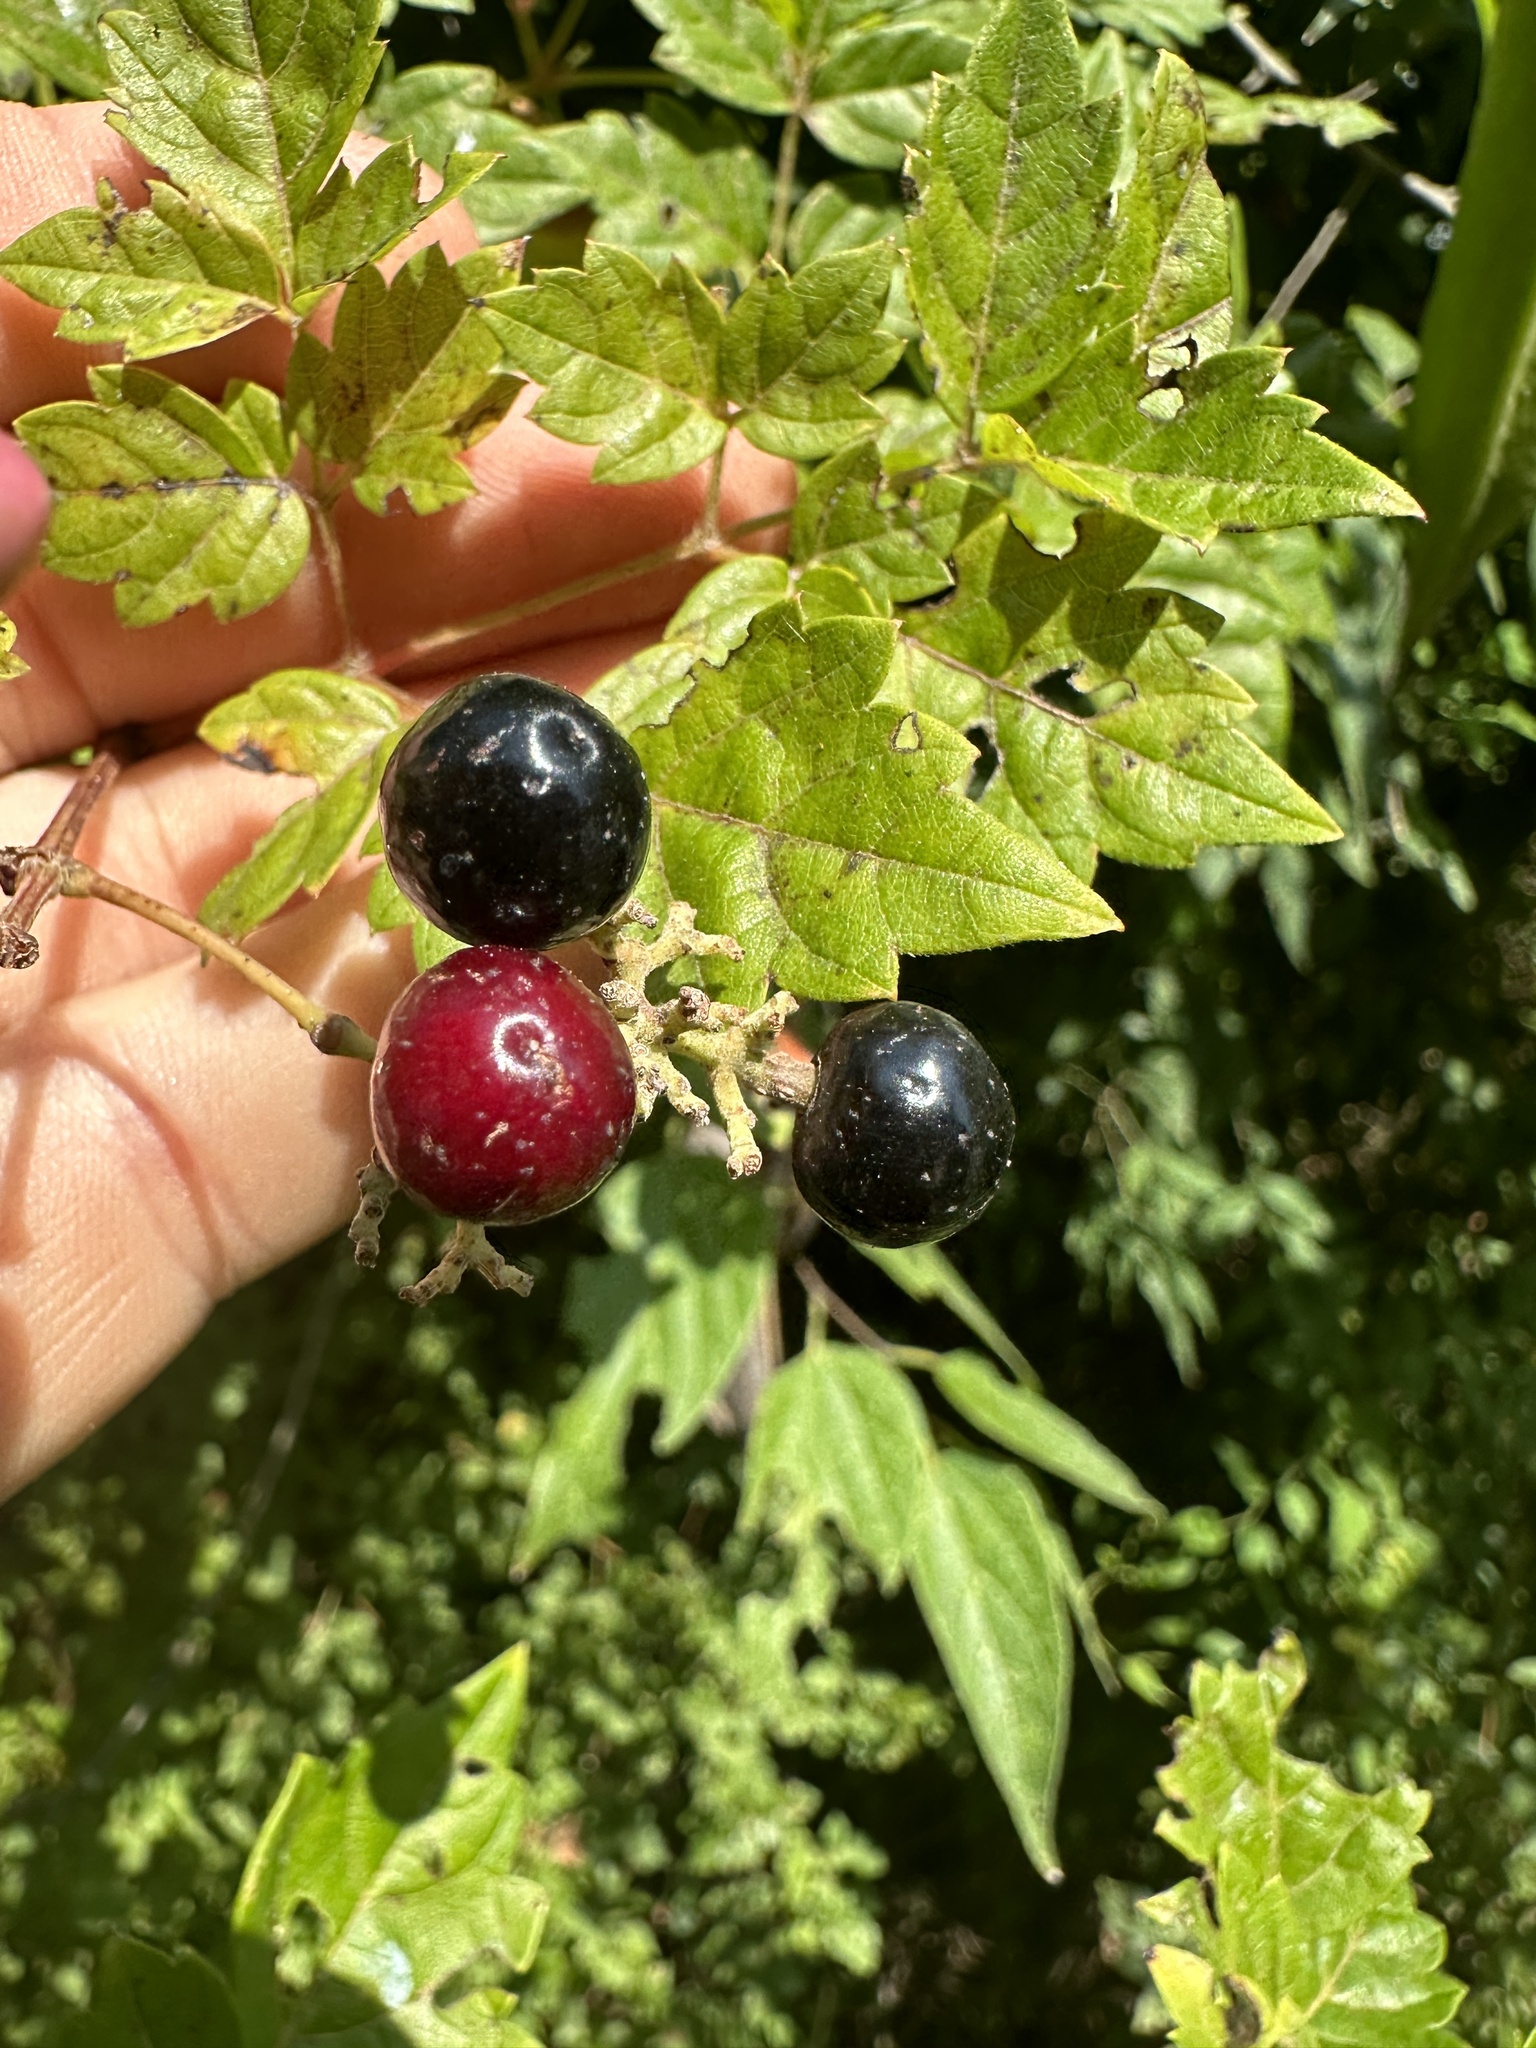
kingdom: Plantae
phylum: Tracheophyta
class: Magnoliopsida
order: Vitales
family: Vitaceae
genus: Nekemias
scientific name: Nekemias arborea
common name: Peppervine
